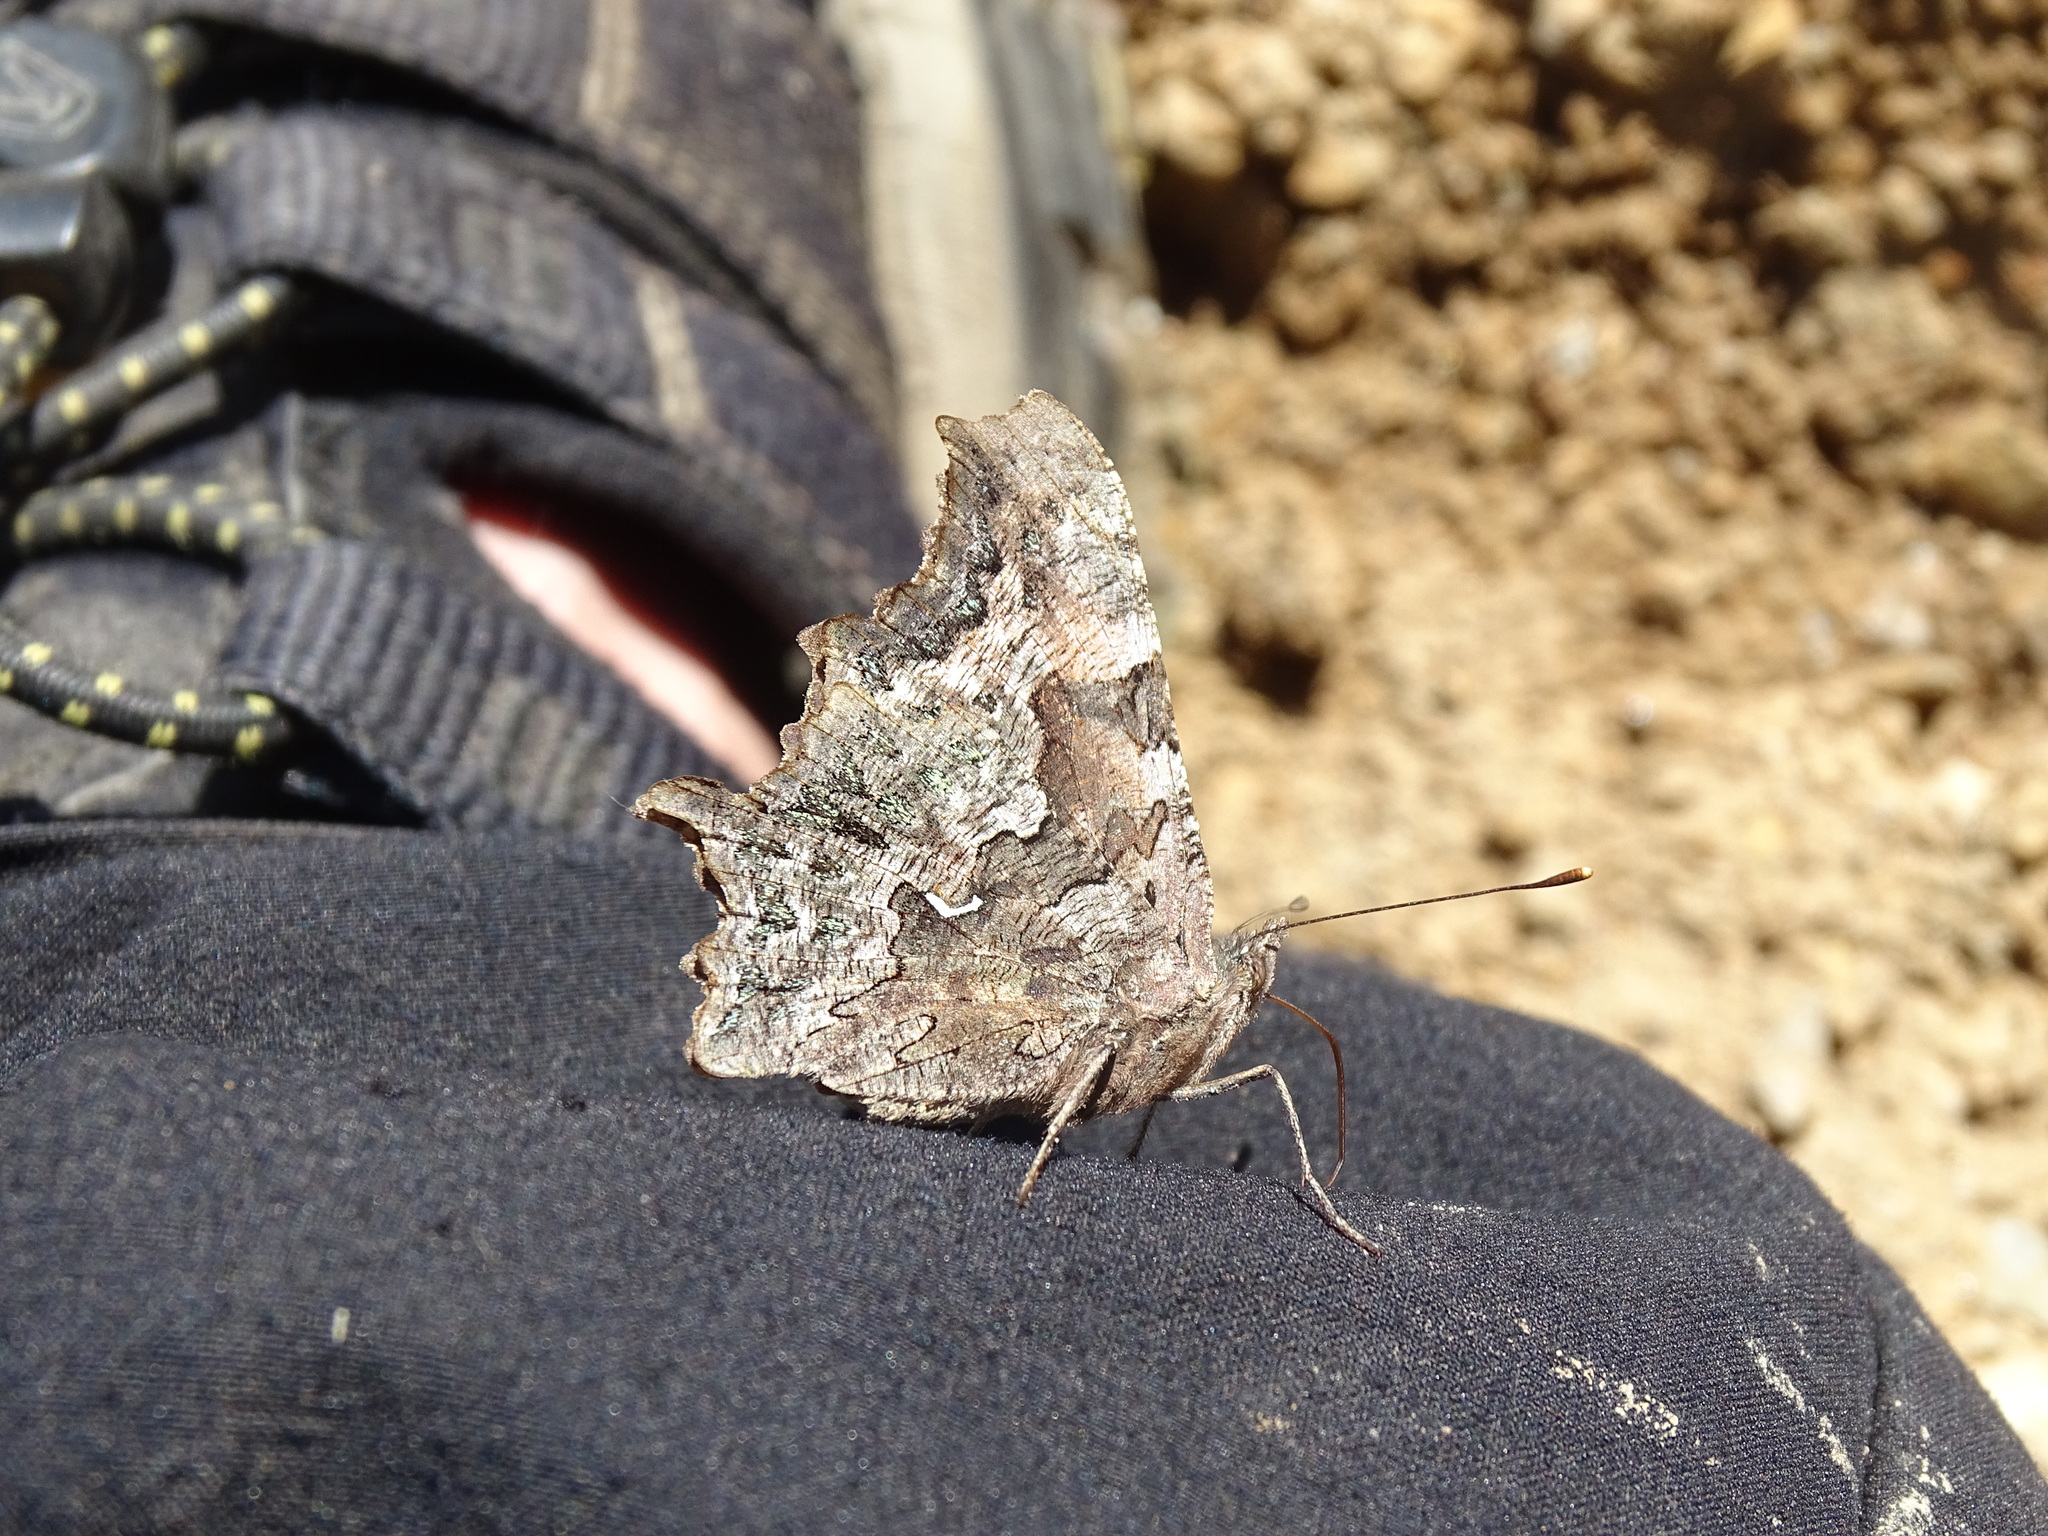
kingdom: Animalia
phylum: Arthropoda
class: Insecta
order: Lepidoptera
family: Nymphalidae
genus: Polygonia
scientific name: Polygonia faunus
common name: Green comma
